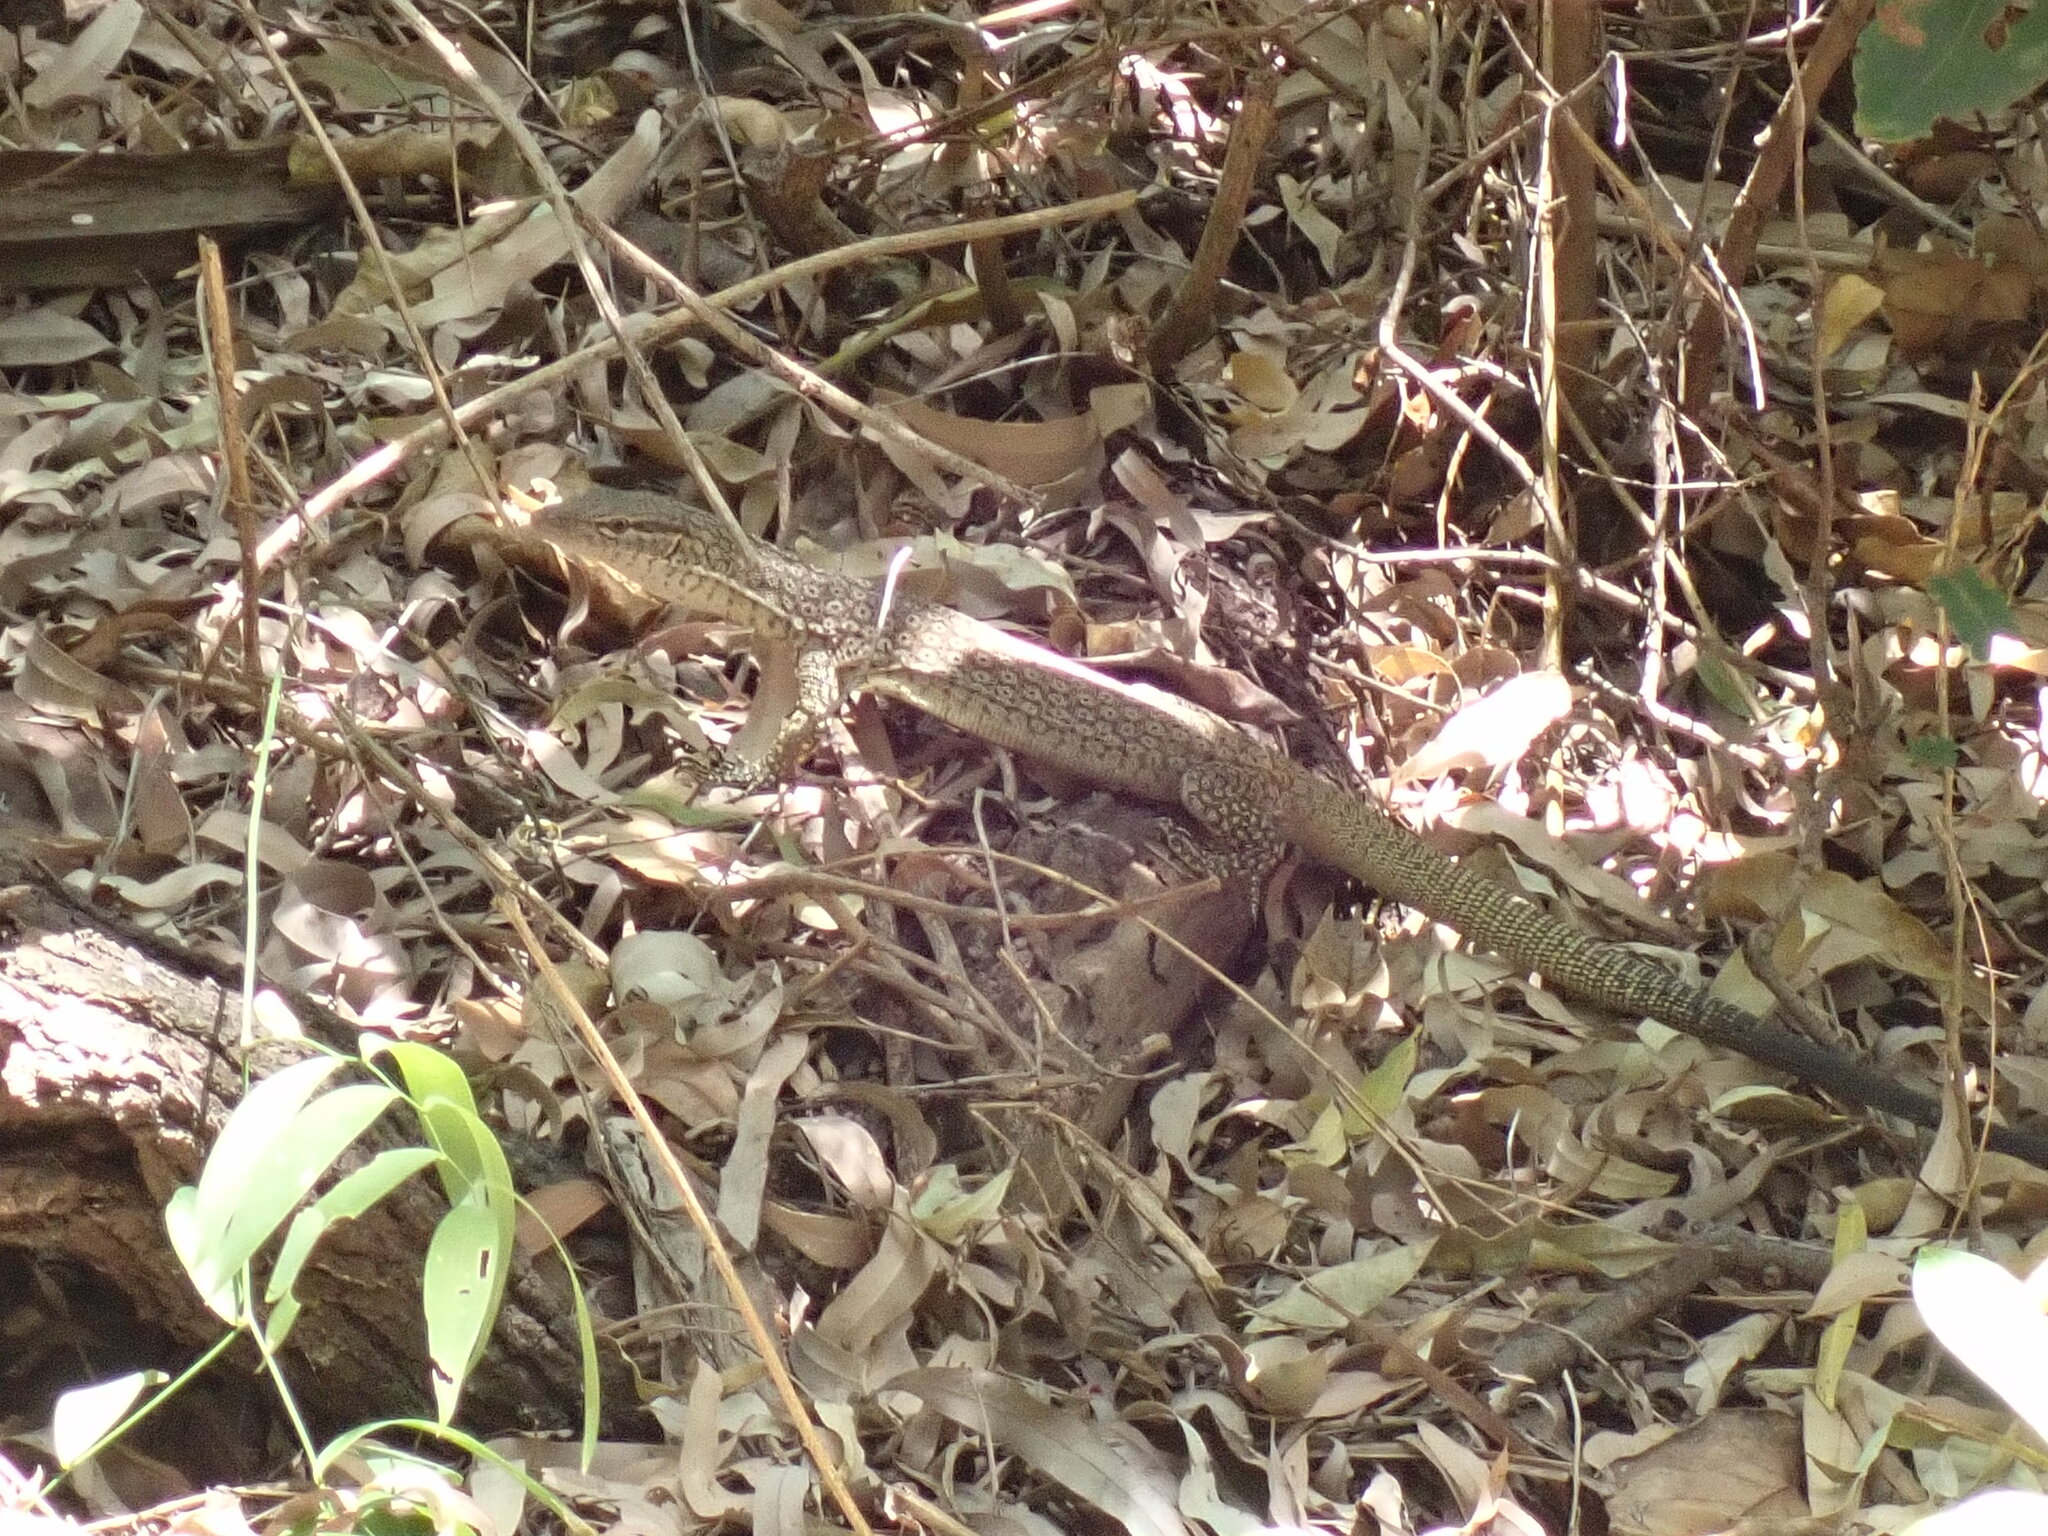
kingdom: Animalia
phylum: Chordata
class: Squamata
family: Varanidae
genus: Varanus
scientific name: Varanus tristis
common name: Arid monitor
